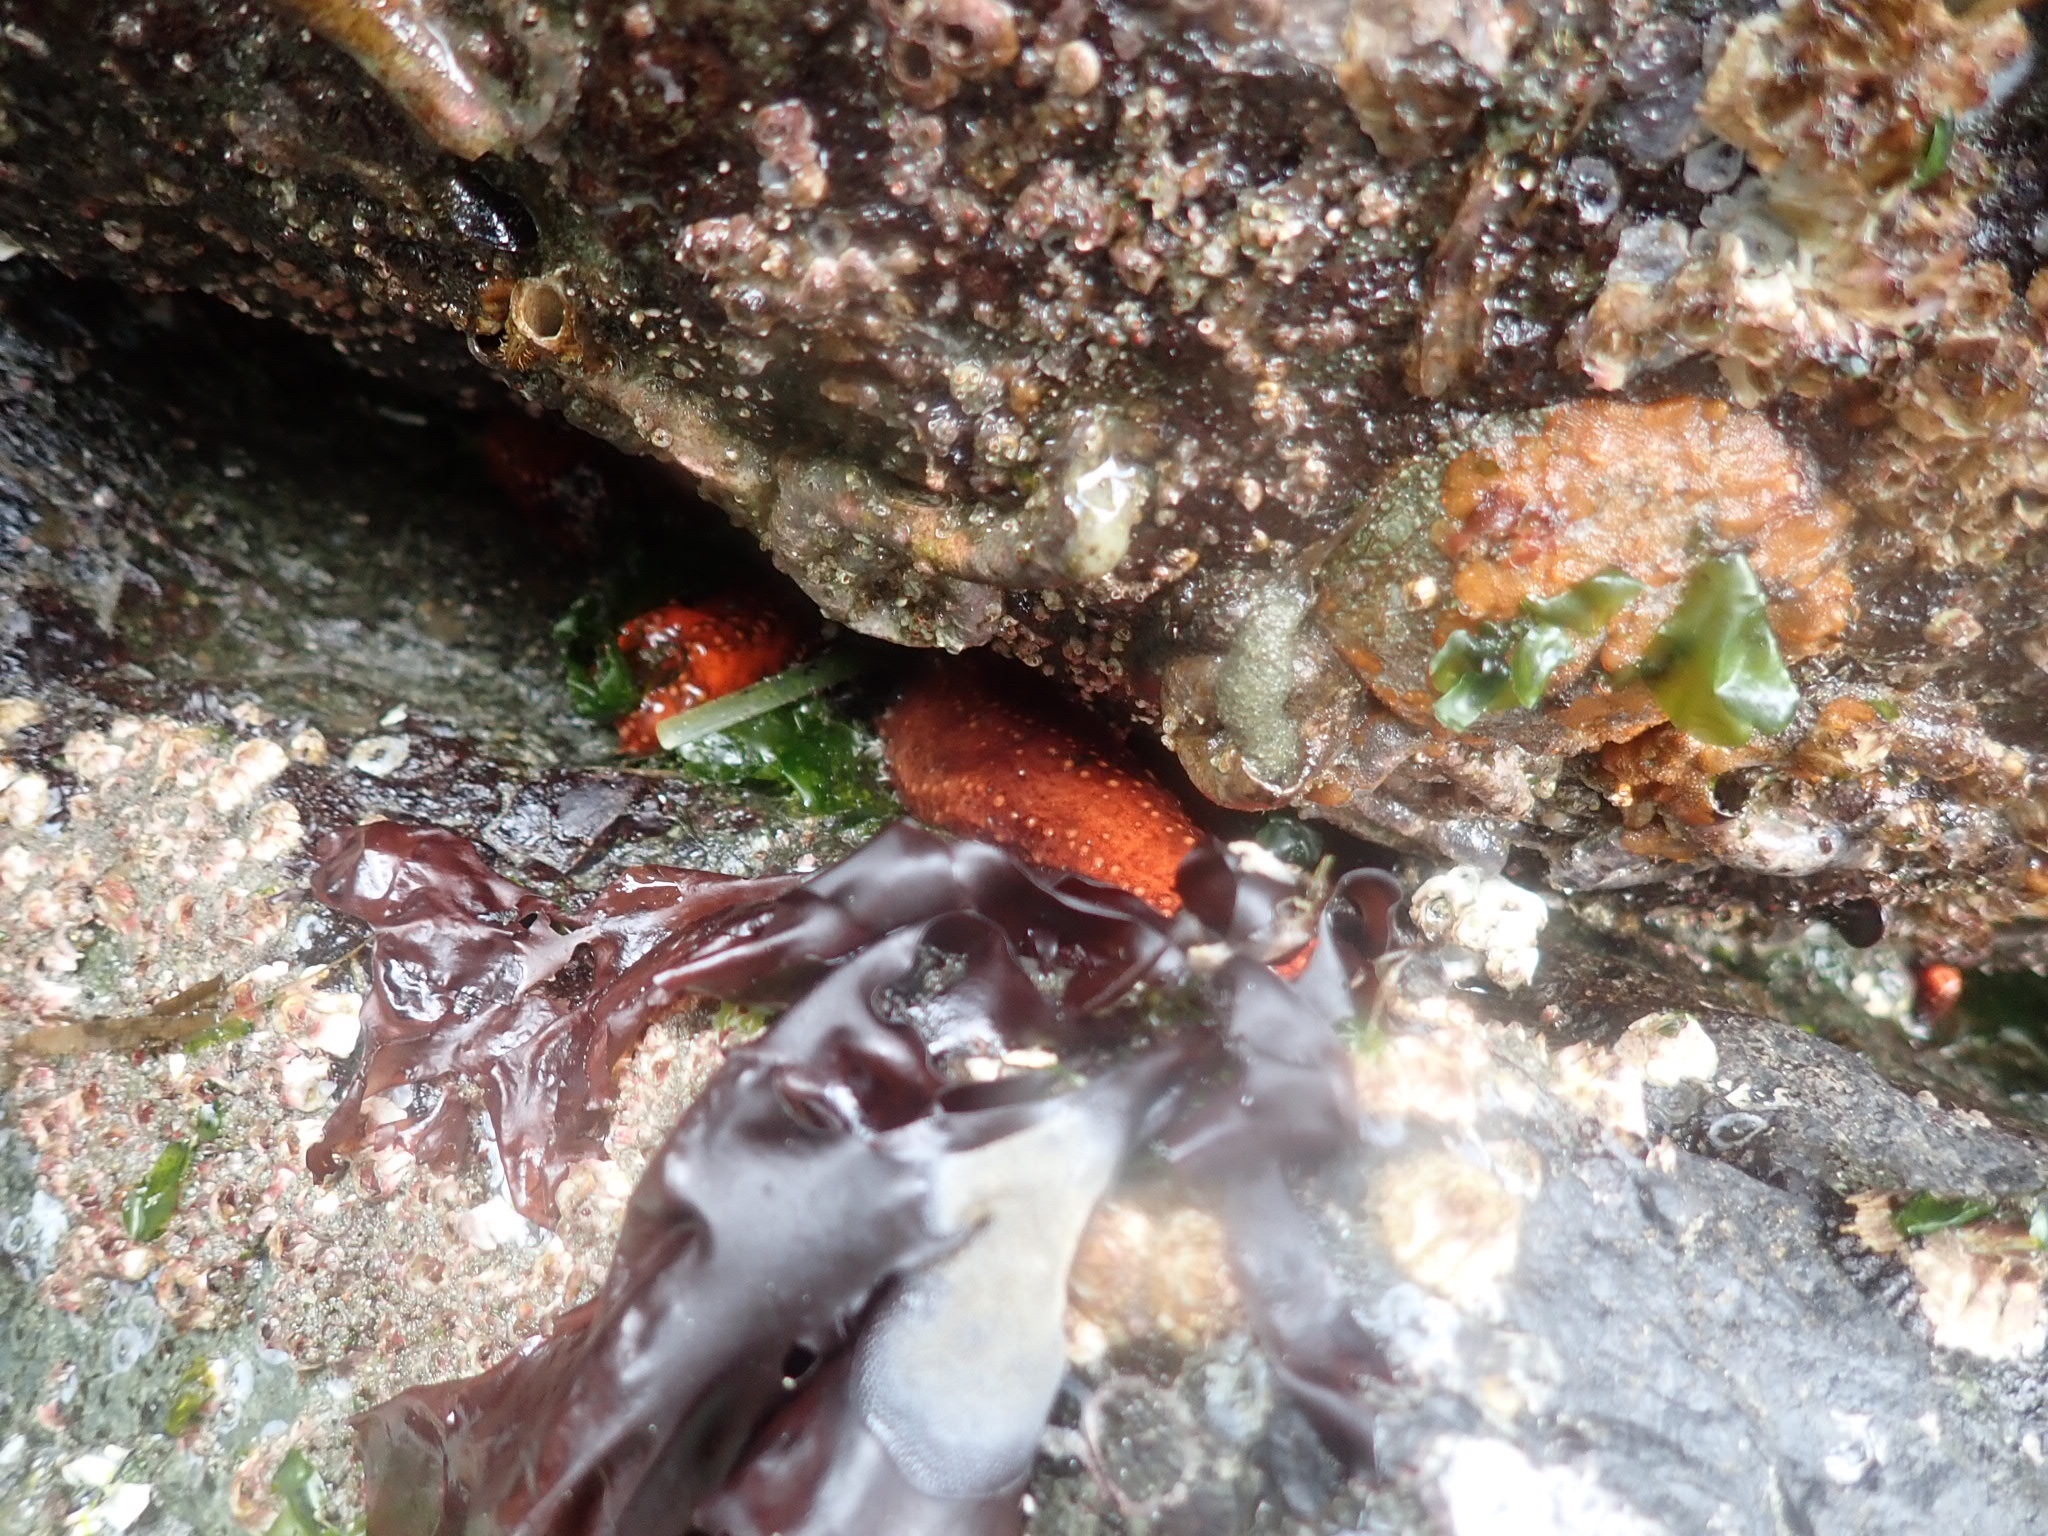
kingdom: Animalia
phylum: Echinodermata
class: Holothuroidea
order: Dendrochirotida
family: Cucumariidae
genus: Cucumaria
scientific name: Cucumaria miniata
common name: Orange sea cucumber
